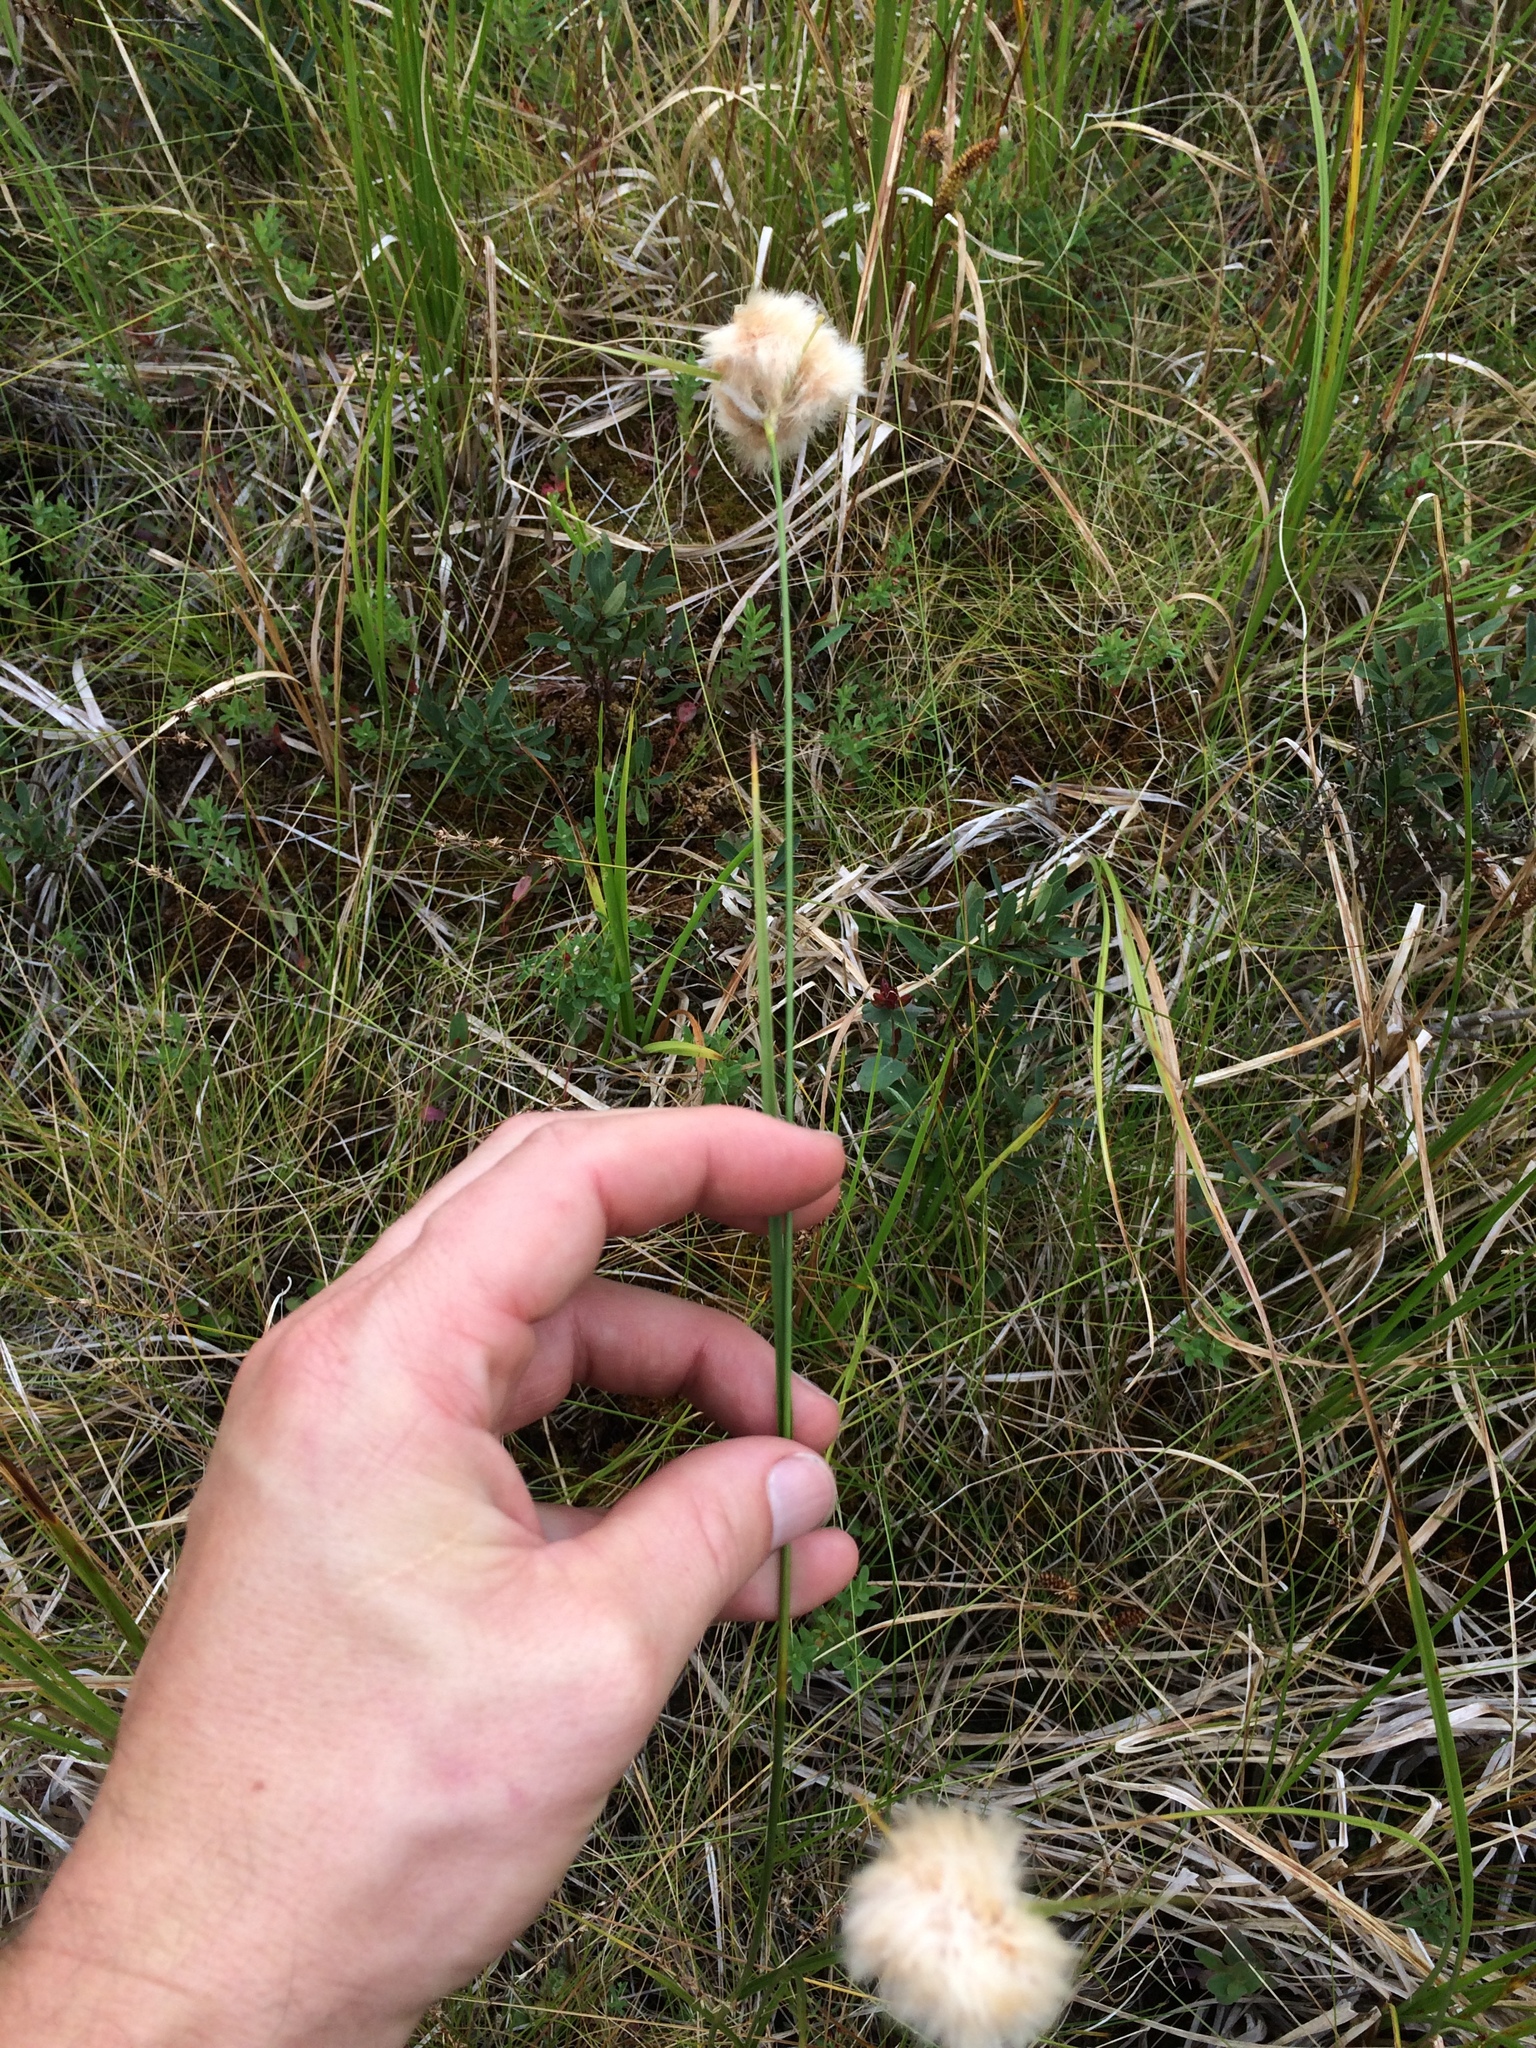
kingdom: Plantae
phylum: Tracheophyta
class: Liliopsida
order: Poales
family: Cyperaceae
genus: Eriophorum
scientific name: Eriophorum virginicum
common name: Tawny cottongrass
